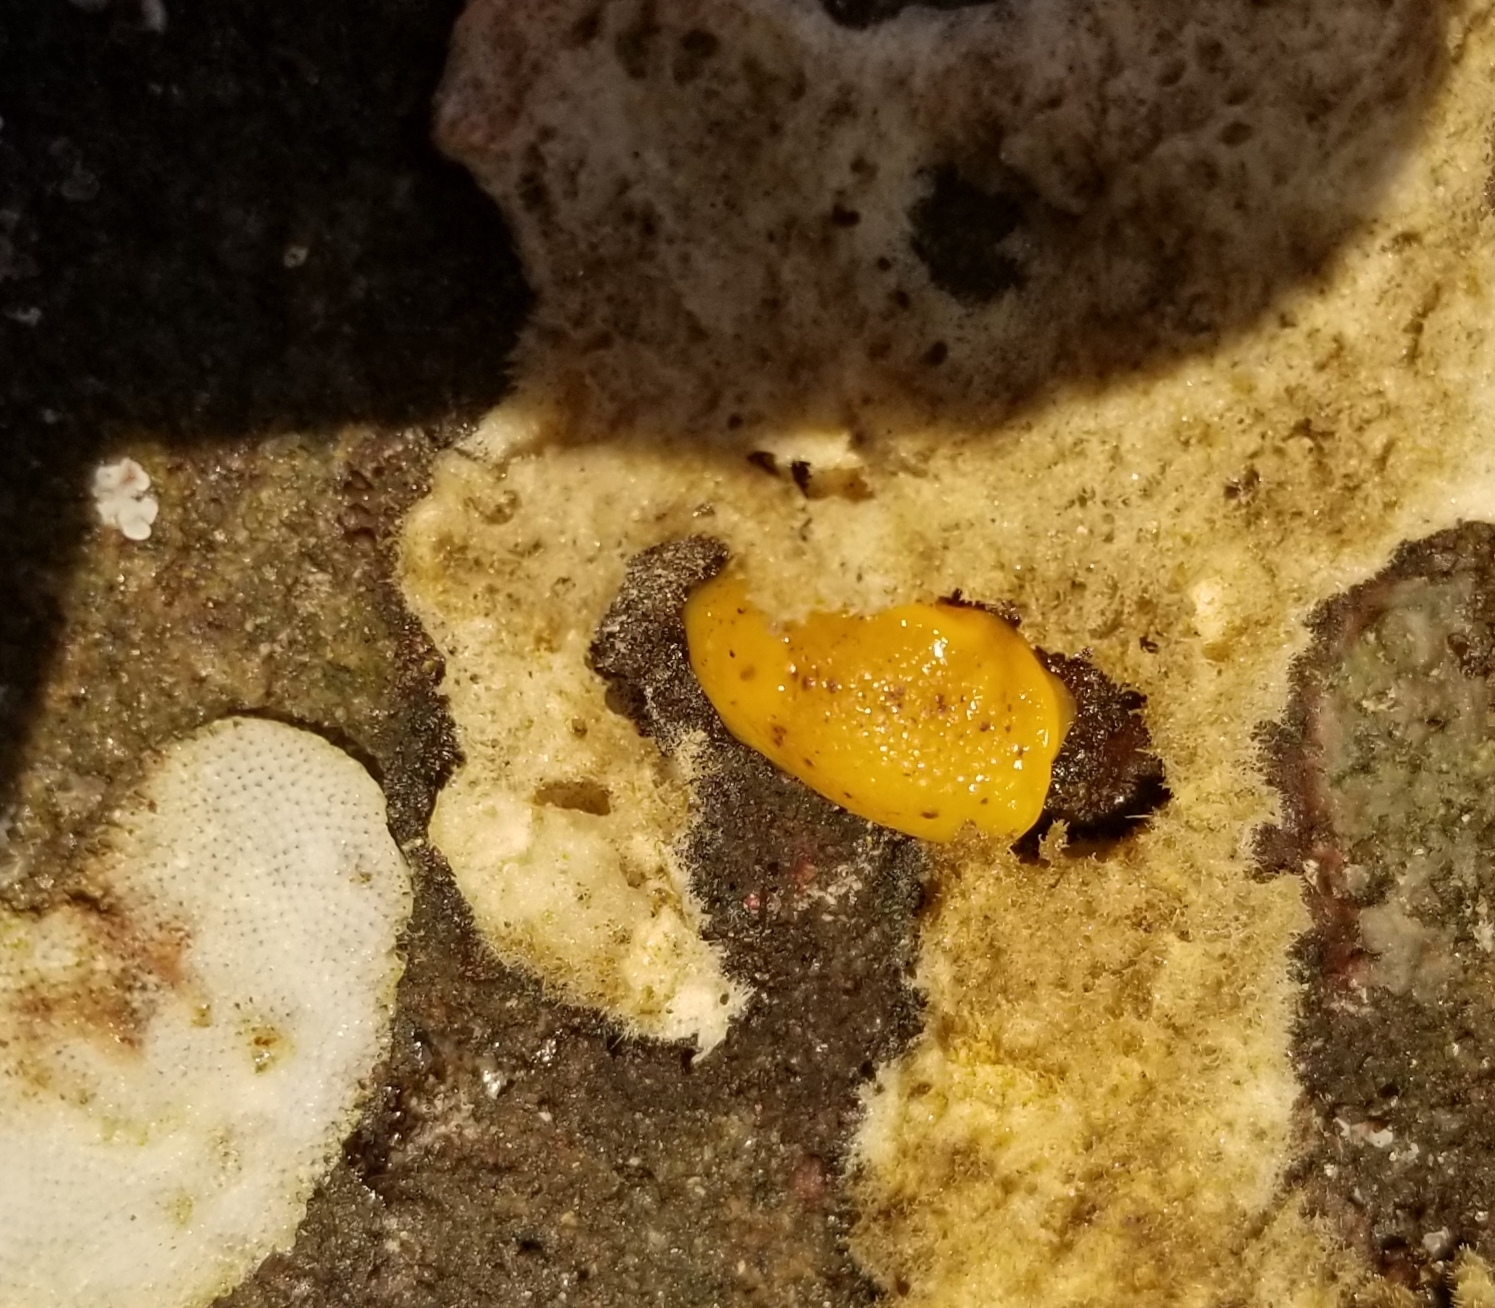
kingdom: Animalia
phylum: Mollusca
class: Gastropoda
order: Nudibranchia
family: Dorididae
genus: Doris
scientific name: Doris montereyensis
